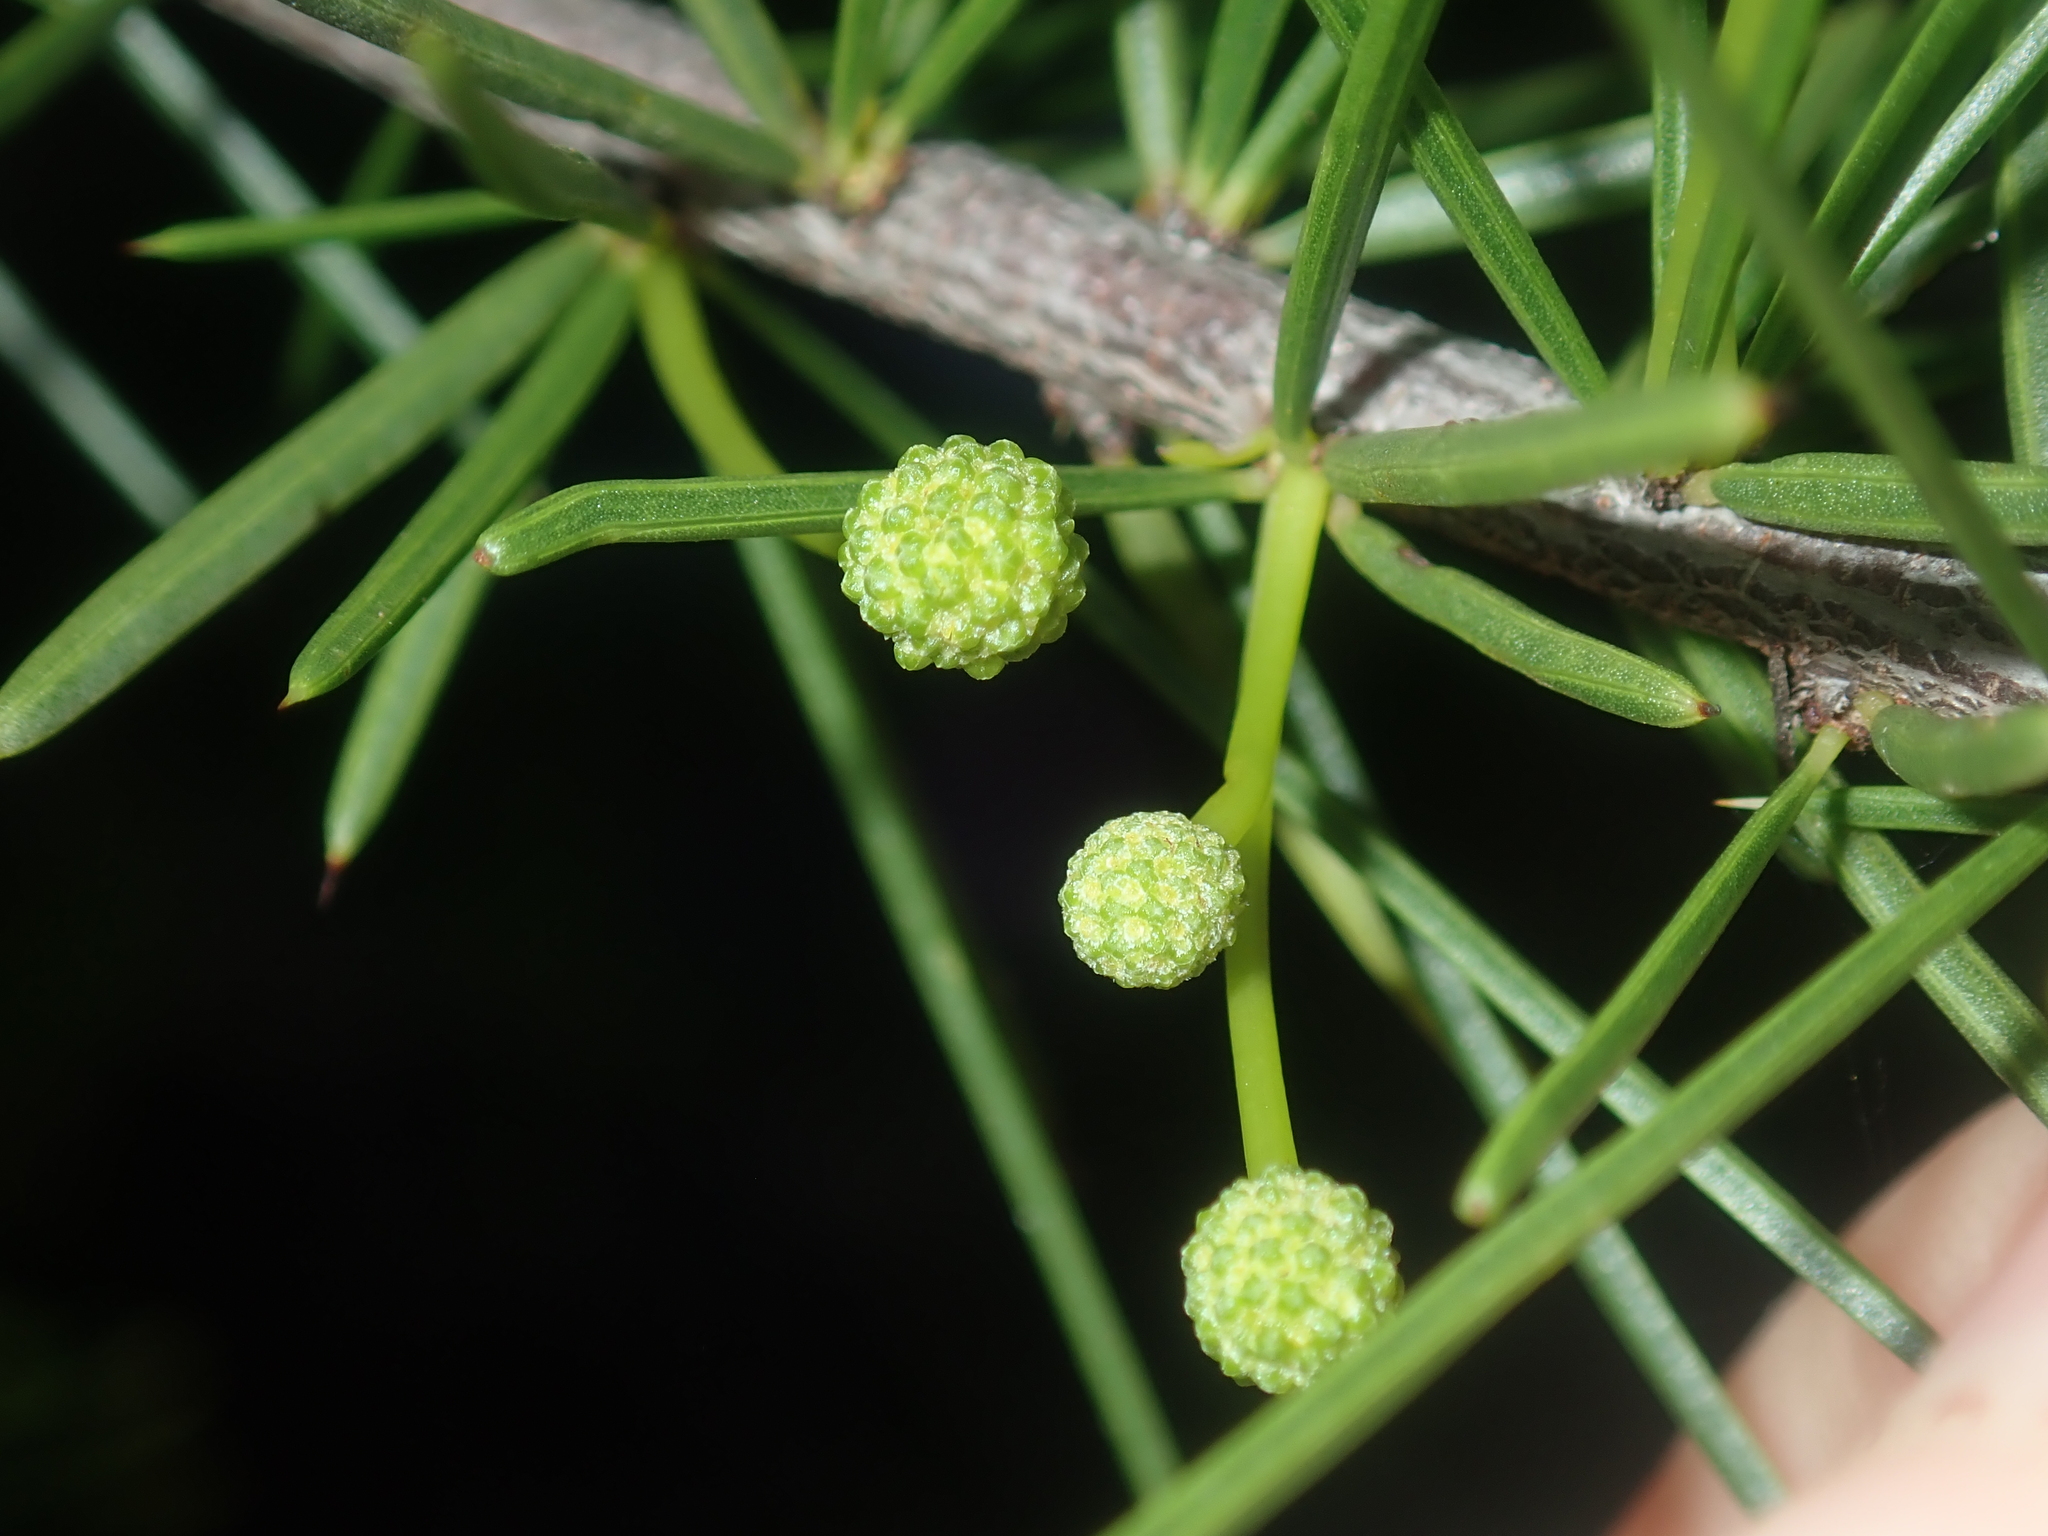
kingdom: Plantae
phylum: Tracheophyta
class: Magnoliopsida
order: Fabales
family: Fabaceae
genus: Acacia
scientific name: Acacia tetragonophylla
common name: Dead finish
